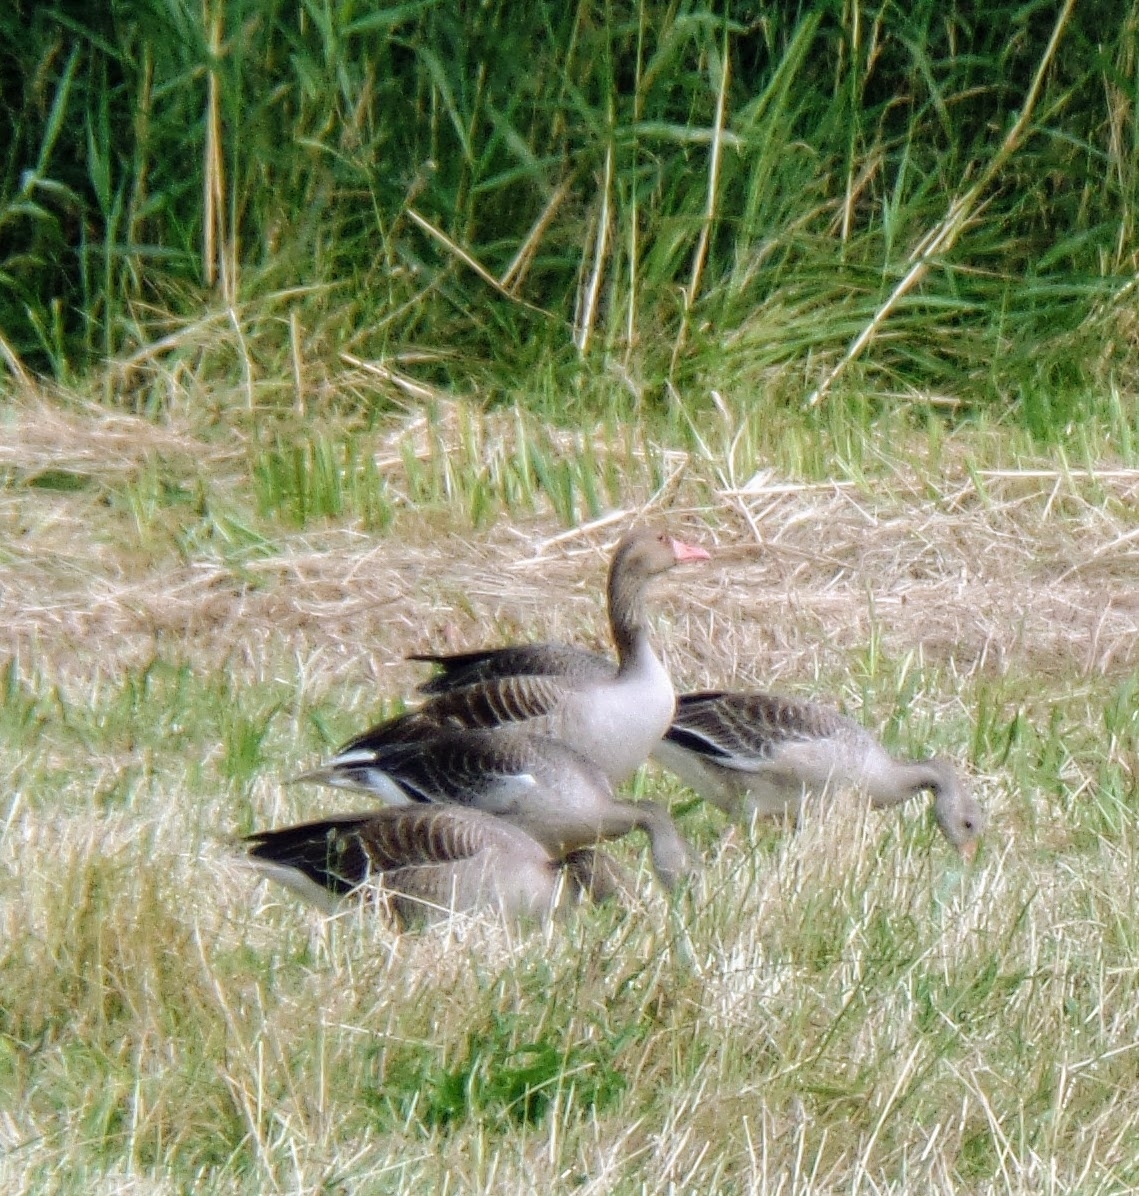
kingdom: Animalia
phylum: Chordata
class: Aves
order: Anseriformes
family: Anatidae
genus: Anser
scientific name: Anser anser
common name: Greylag goose
